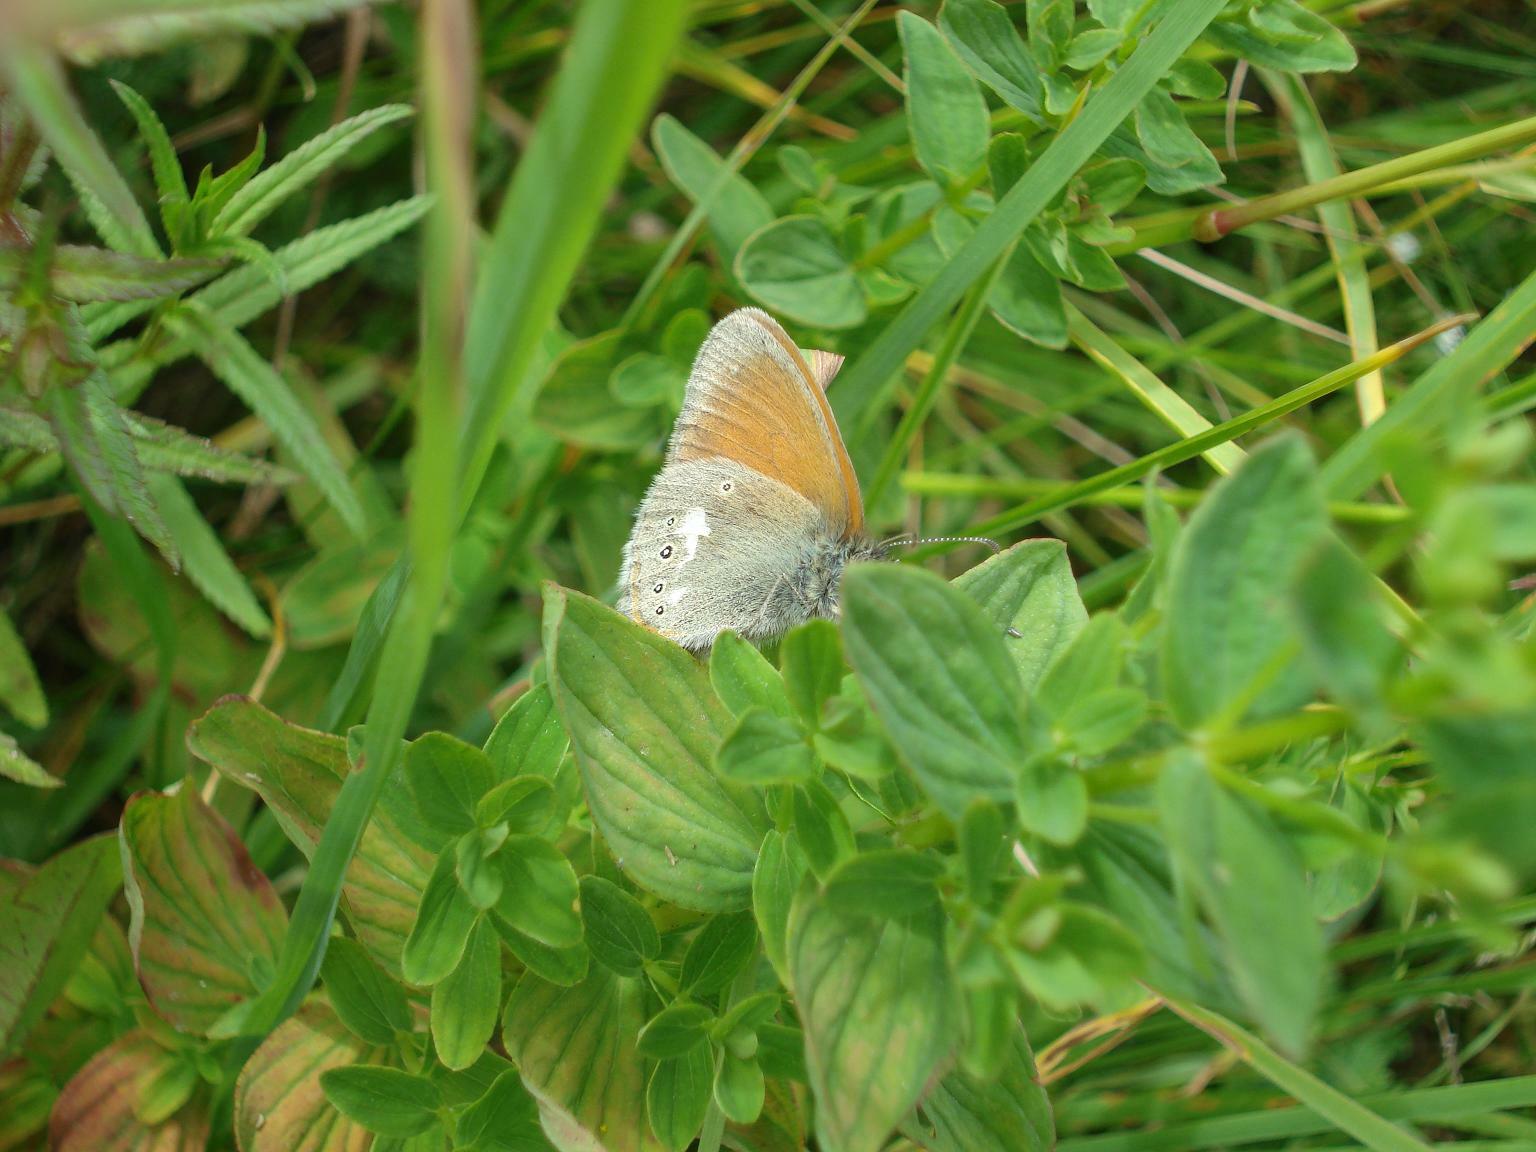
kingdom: Animalia
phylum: Arthropoda
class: Insecta
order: Lepidoptera
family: Nymphalidae
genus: Coenonympha
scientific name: Coenonympha iphis
